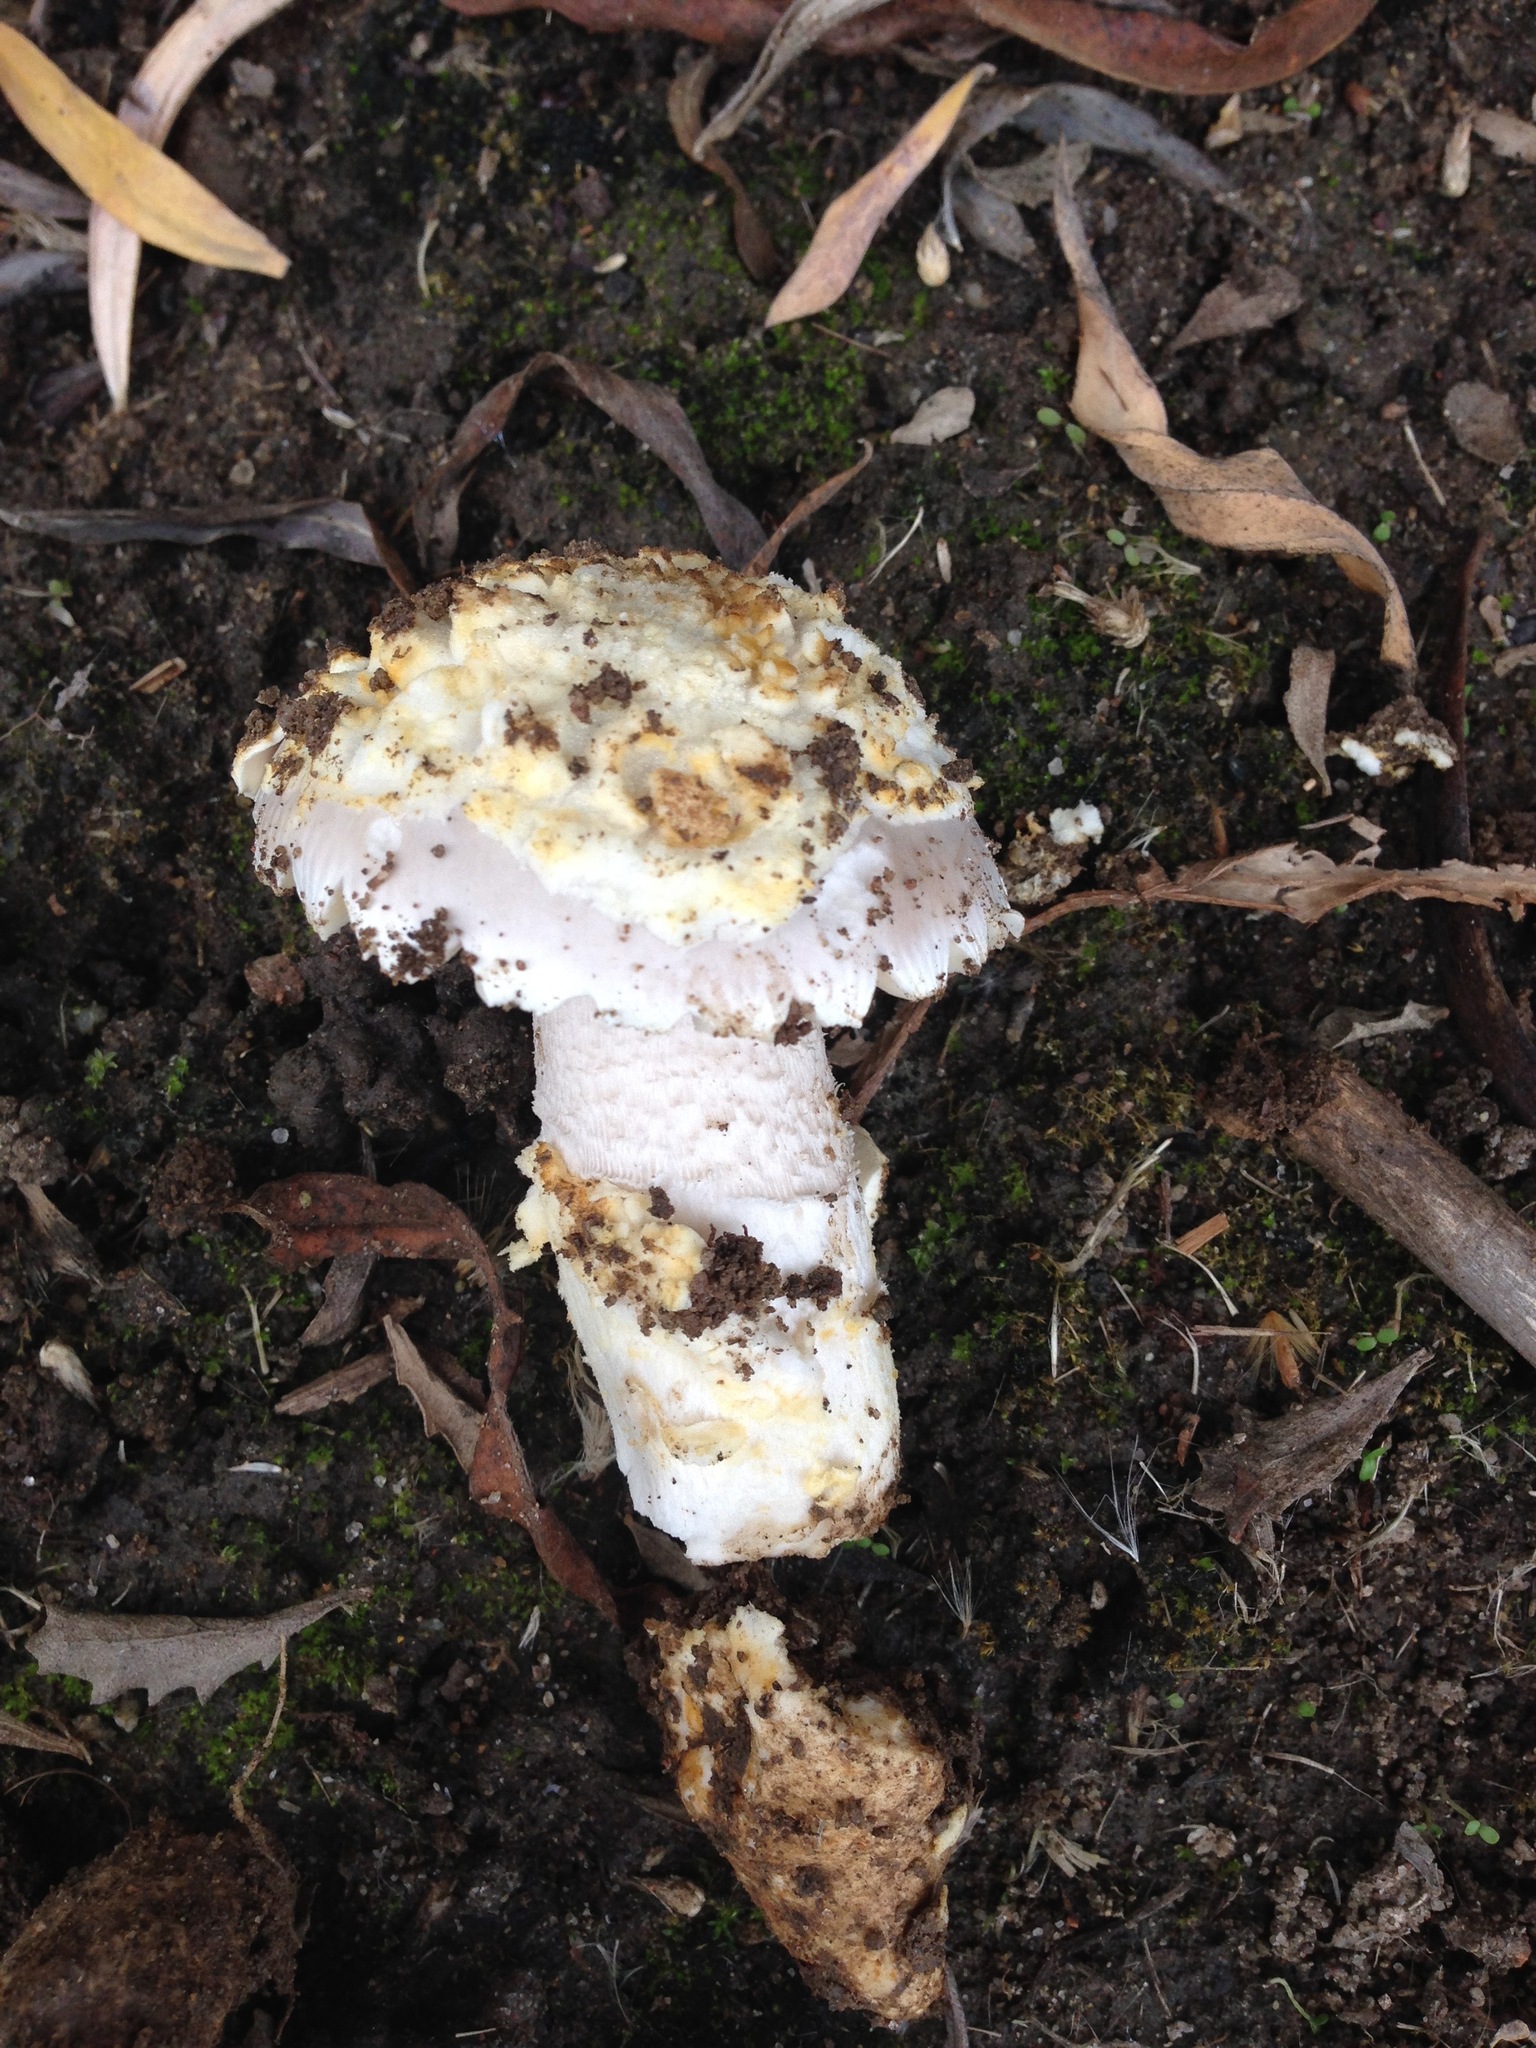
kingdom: Fungi
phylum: Basidiomycota
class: Agaricomycetes
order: Agaricales
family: Amanitaceae
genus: Amanita
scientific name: Amanita protecta
